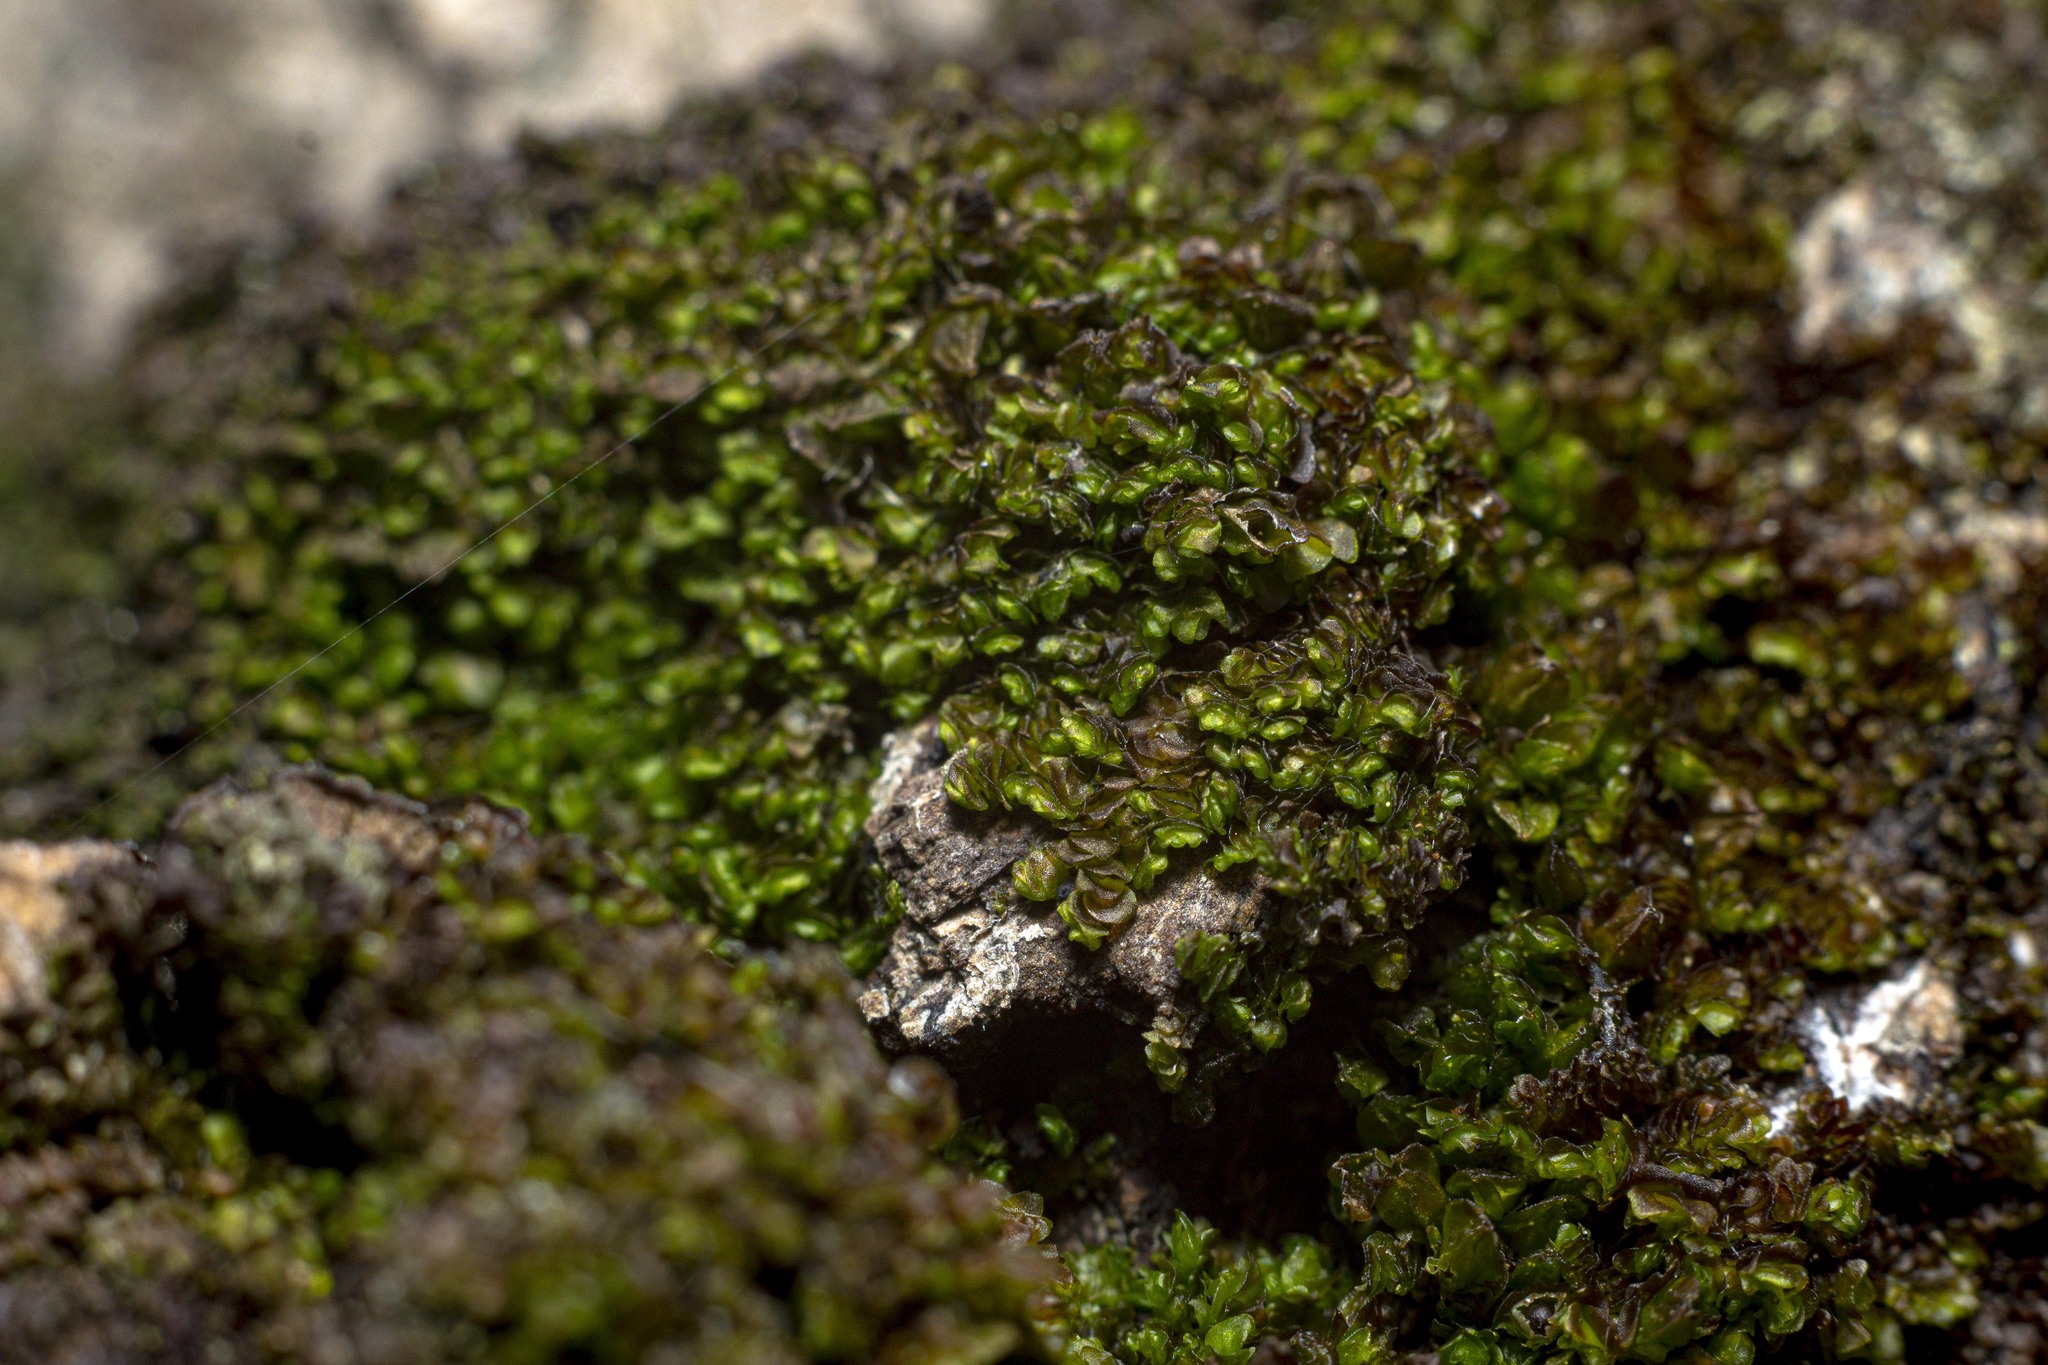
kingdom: Plantae
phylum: Marchantiophyta
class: Jungermanniopsida
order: Porellales
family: Frullaniaceae
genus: Frullania
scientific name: Frullania catalinae
